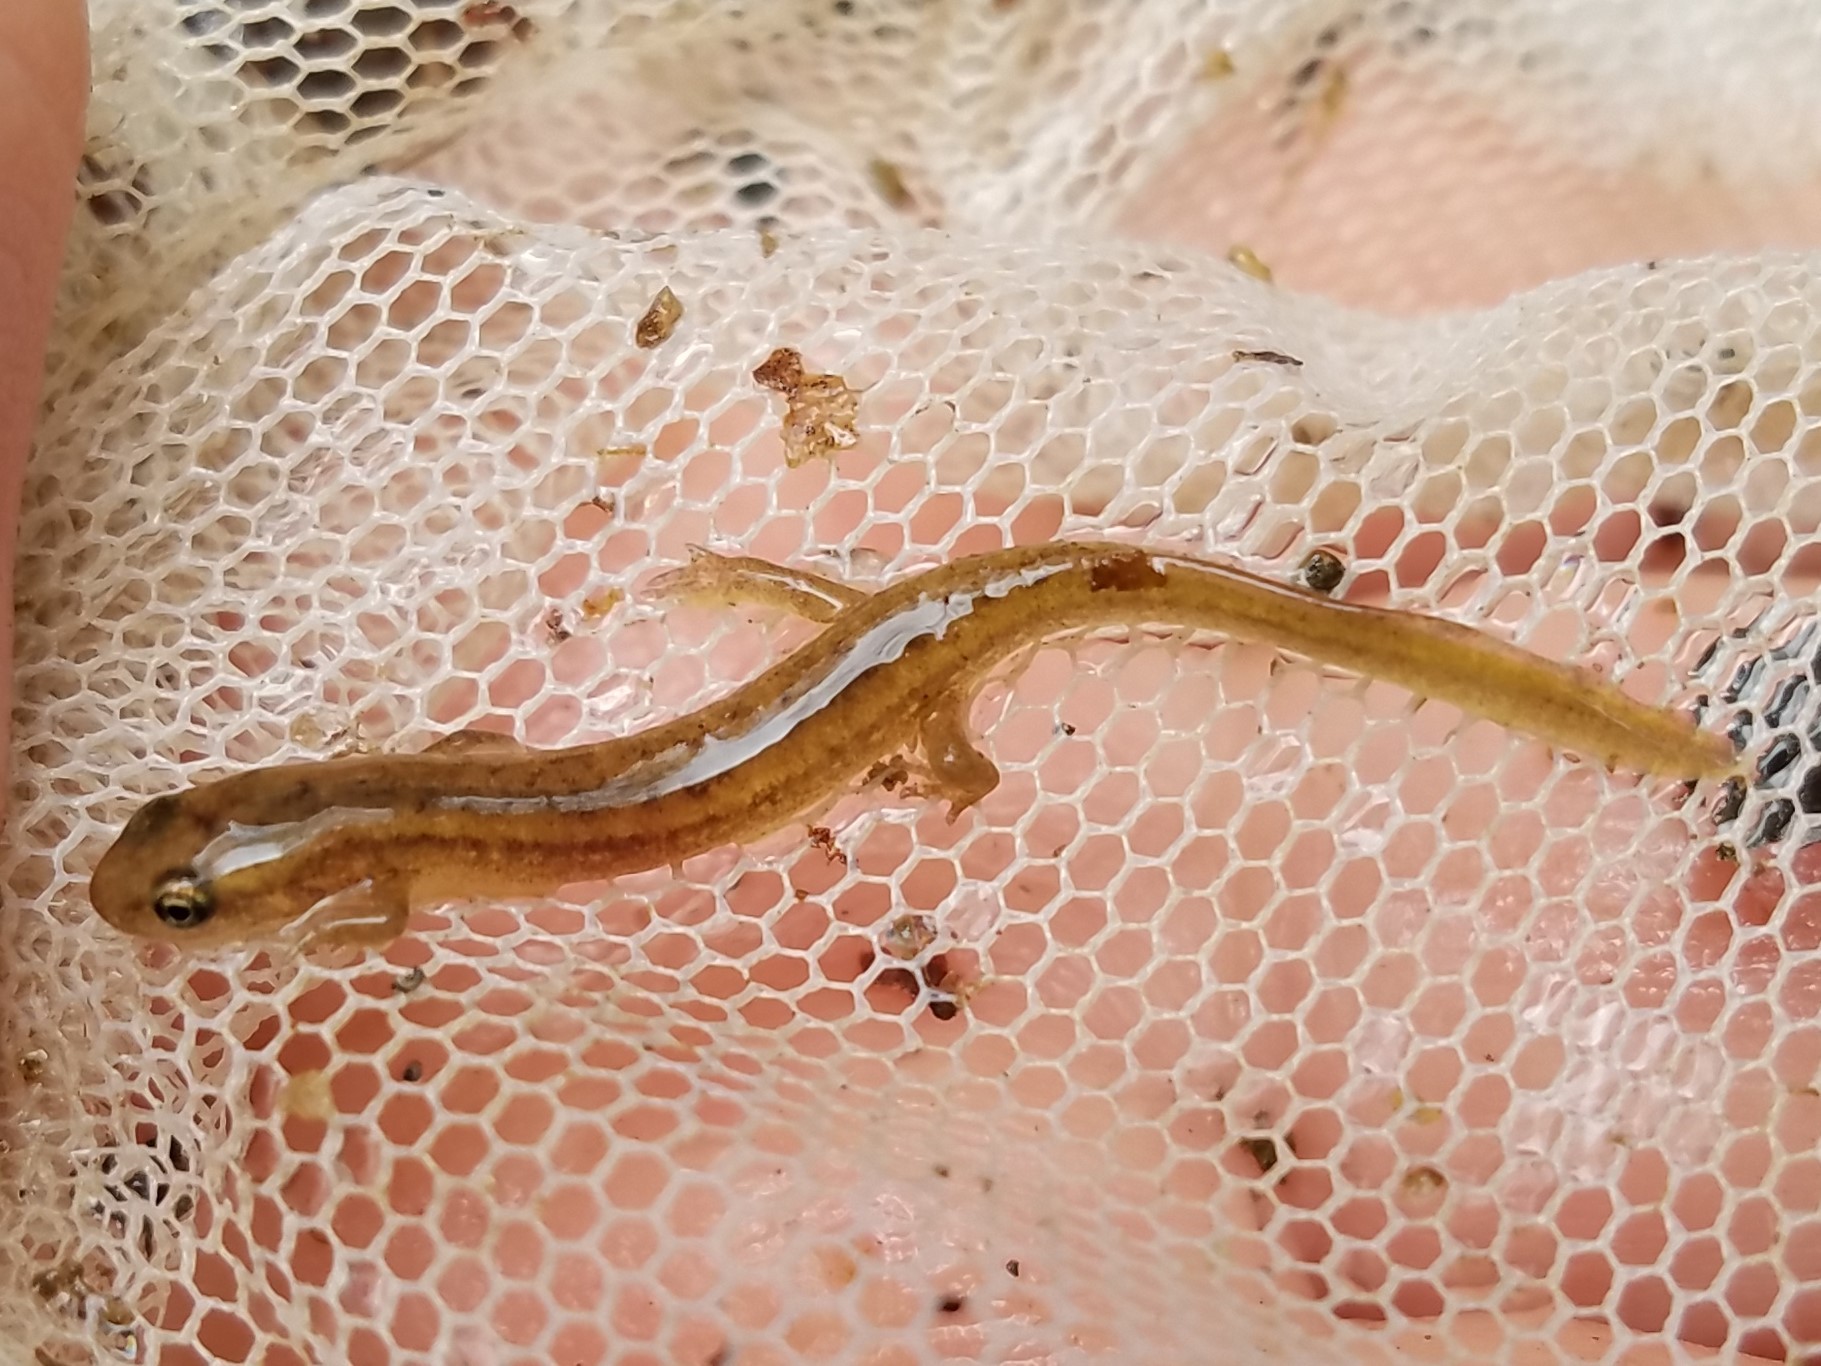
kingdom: Animalia
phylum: Chordata
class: Amphibia
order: Caudata
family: Plethodontidae
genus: Eurycea
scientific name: Eurycea
